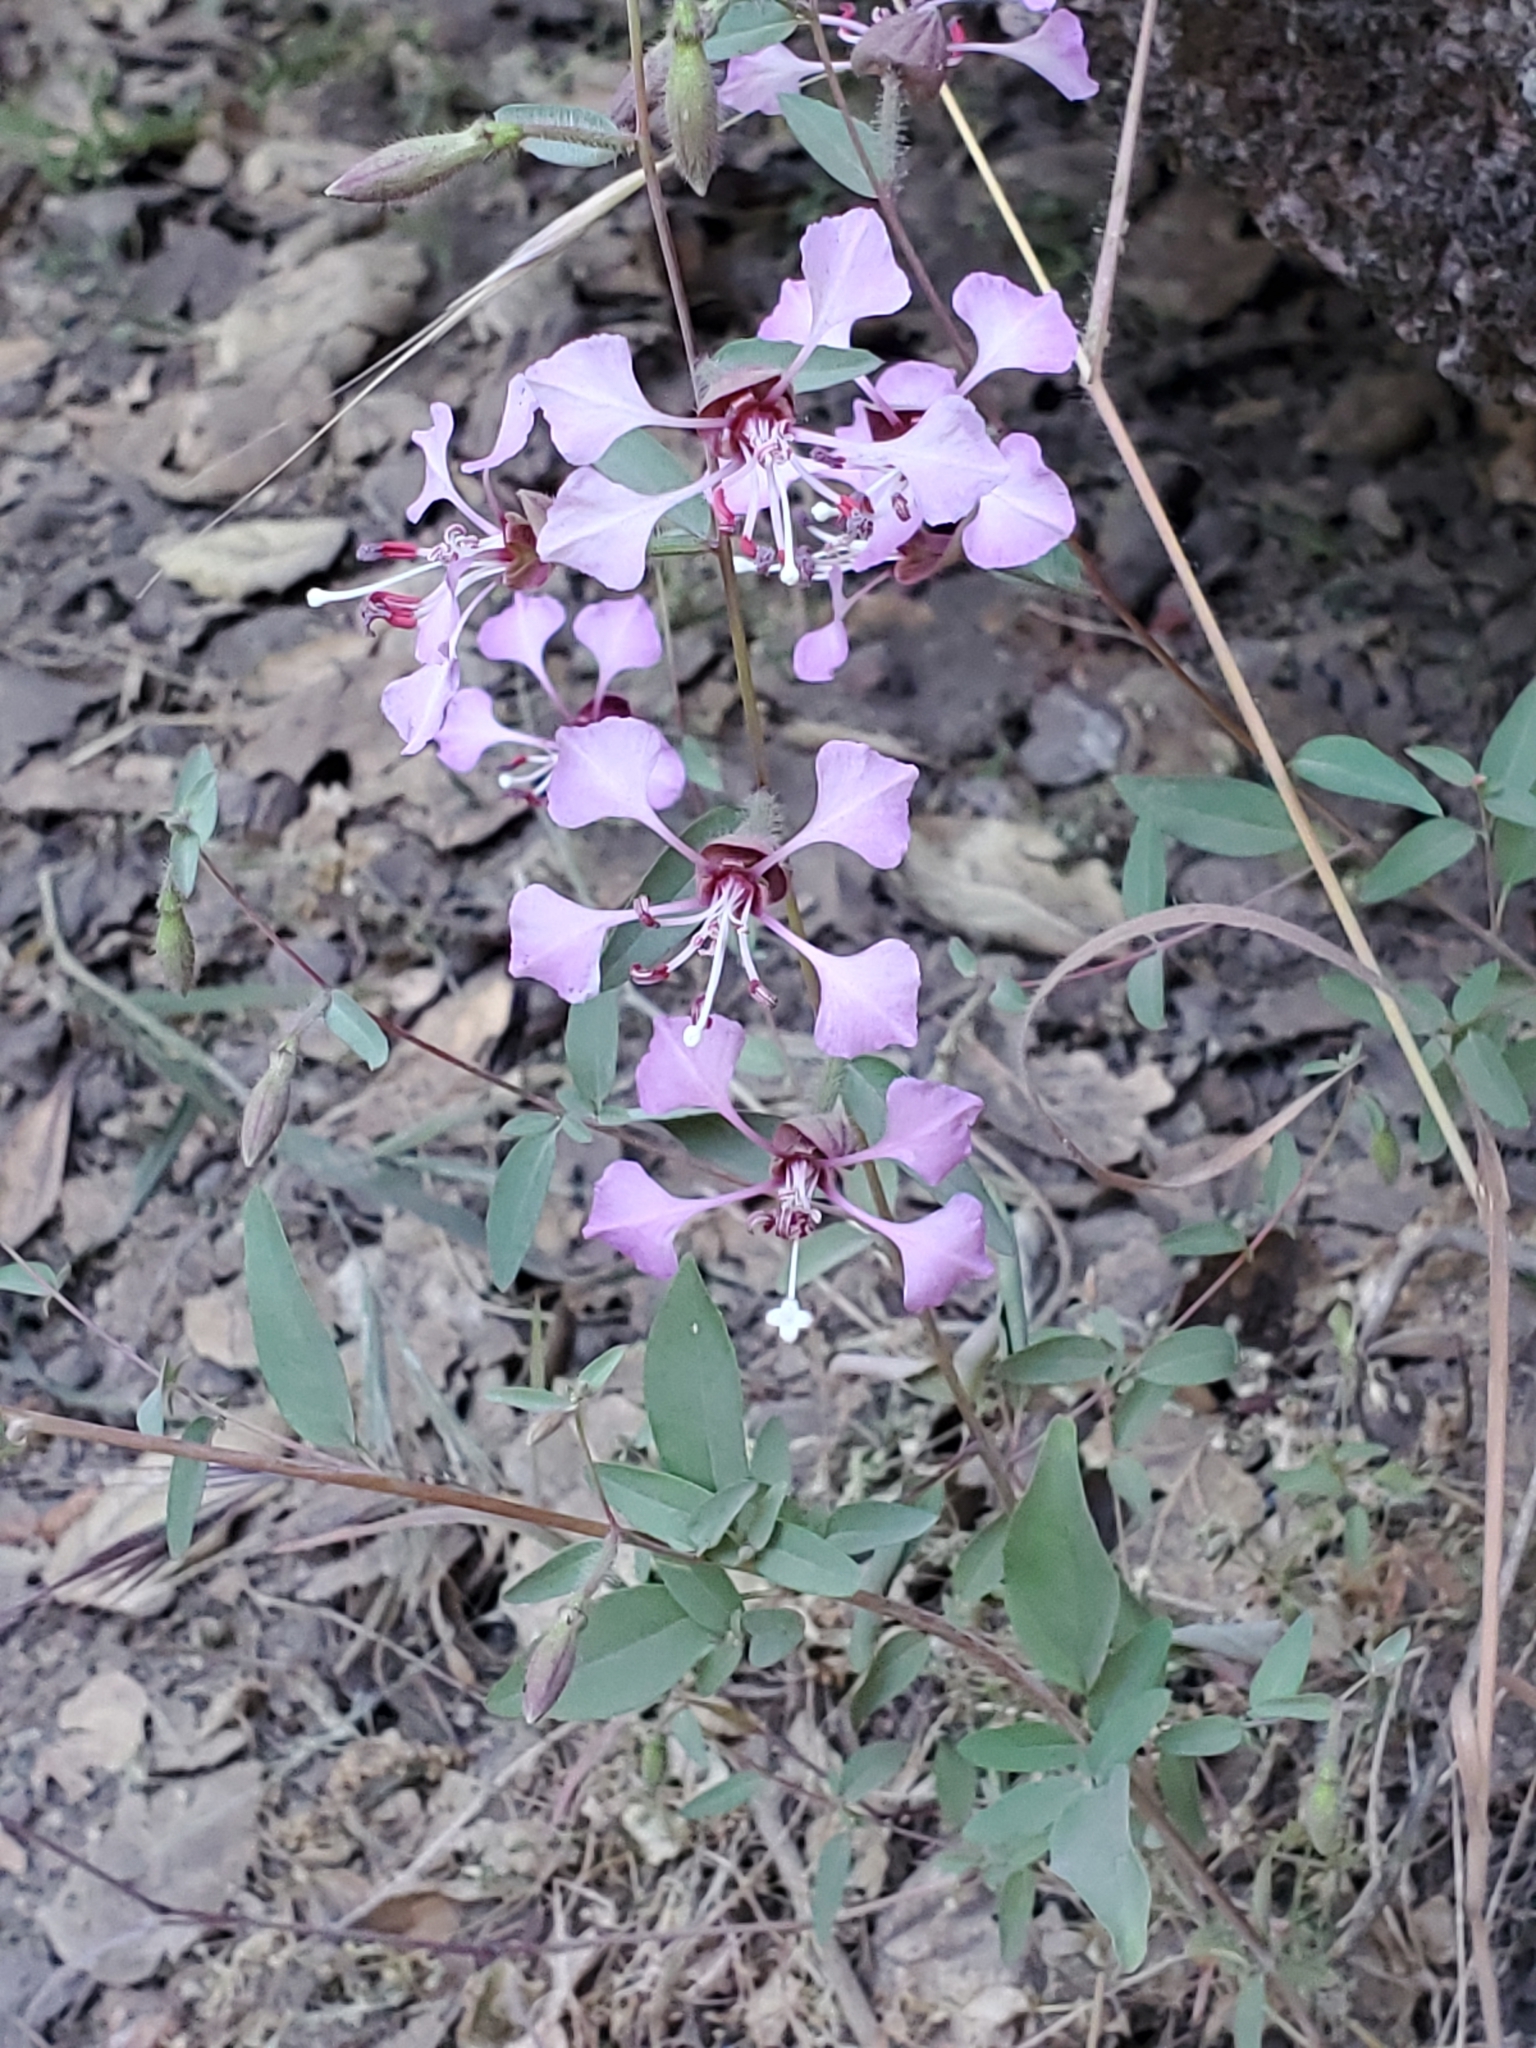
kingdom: Plantae
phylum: Tracheophyta
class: Magnoliopsida
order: Myrtales
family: Onagraceae
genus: Clarkia
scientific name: Clarkia unguiculata
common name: Clarkia
